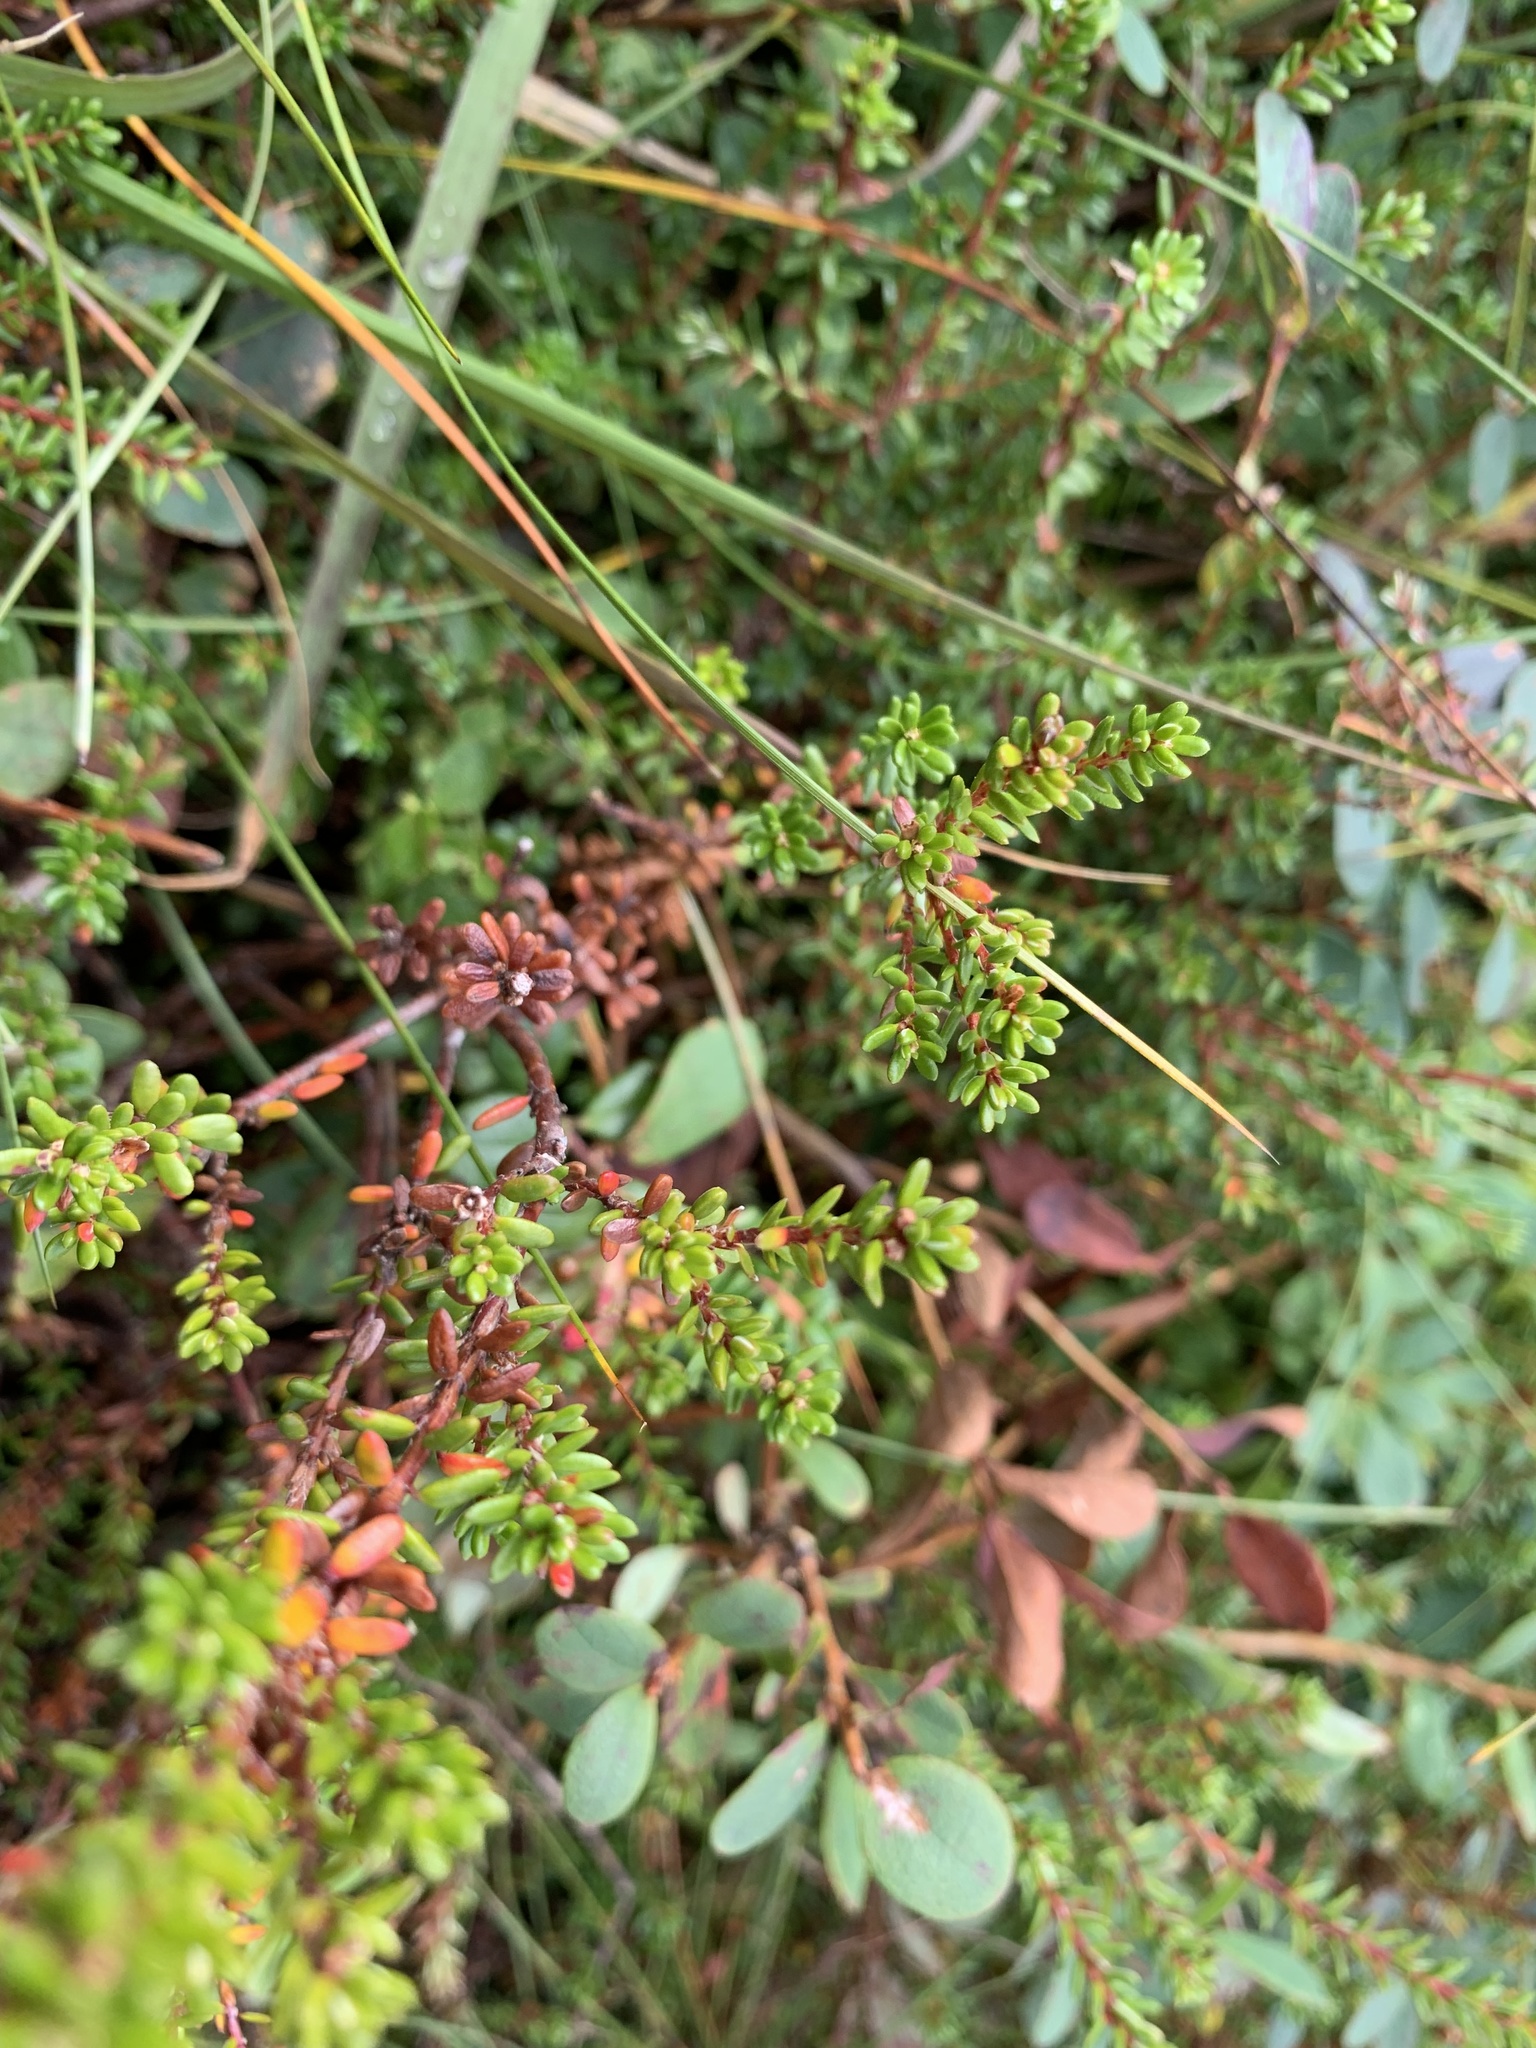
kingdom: Plantae
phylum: Tracheophyta
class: Magnoliopsida
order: Ericales
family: Ericaceae
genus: Empetrum
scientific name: Empetrum nigrum
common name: Black crowberry
